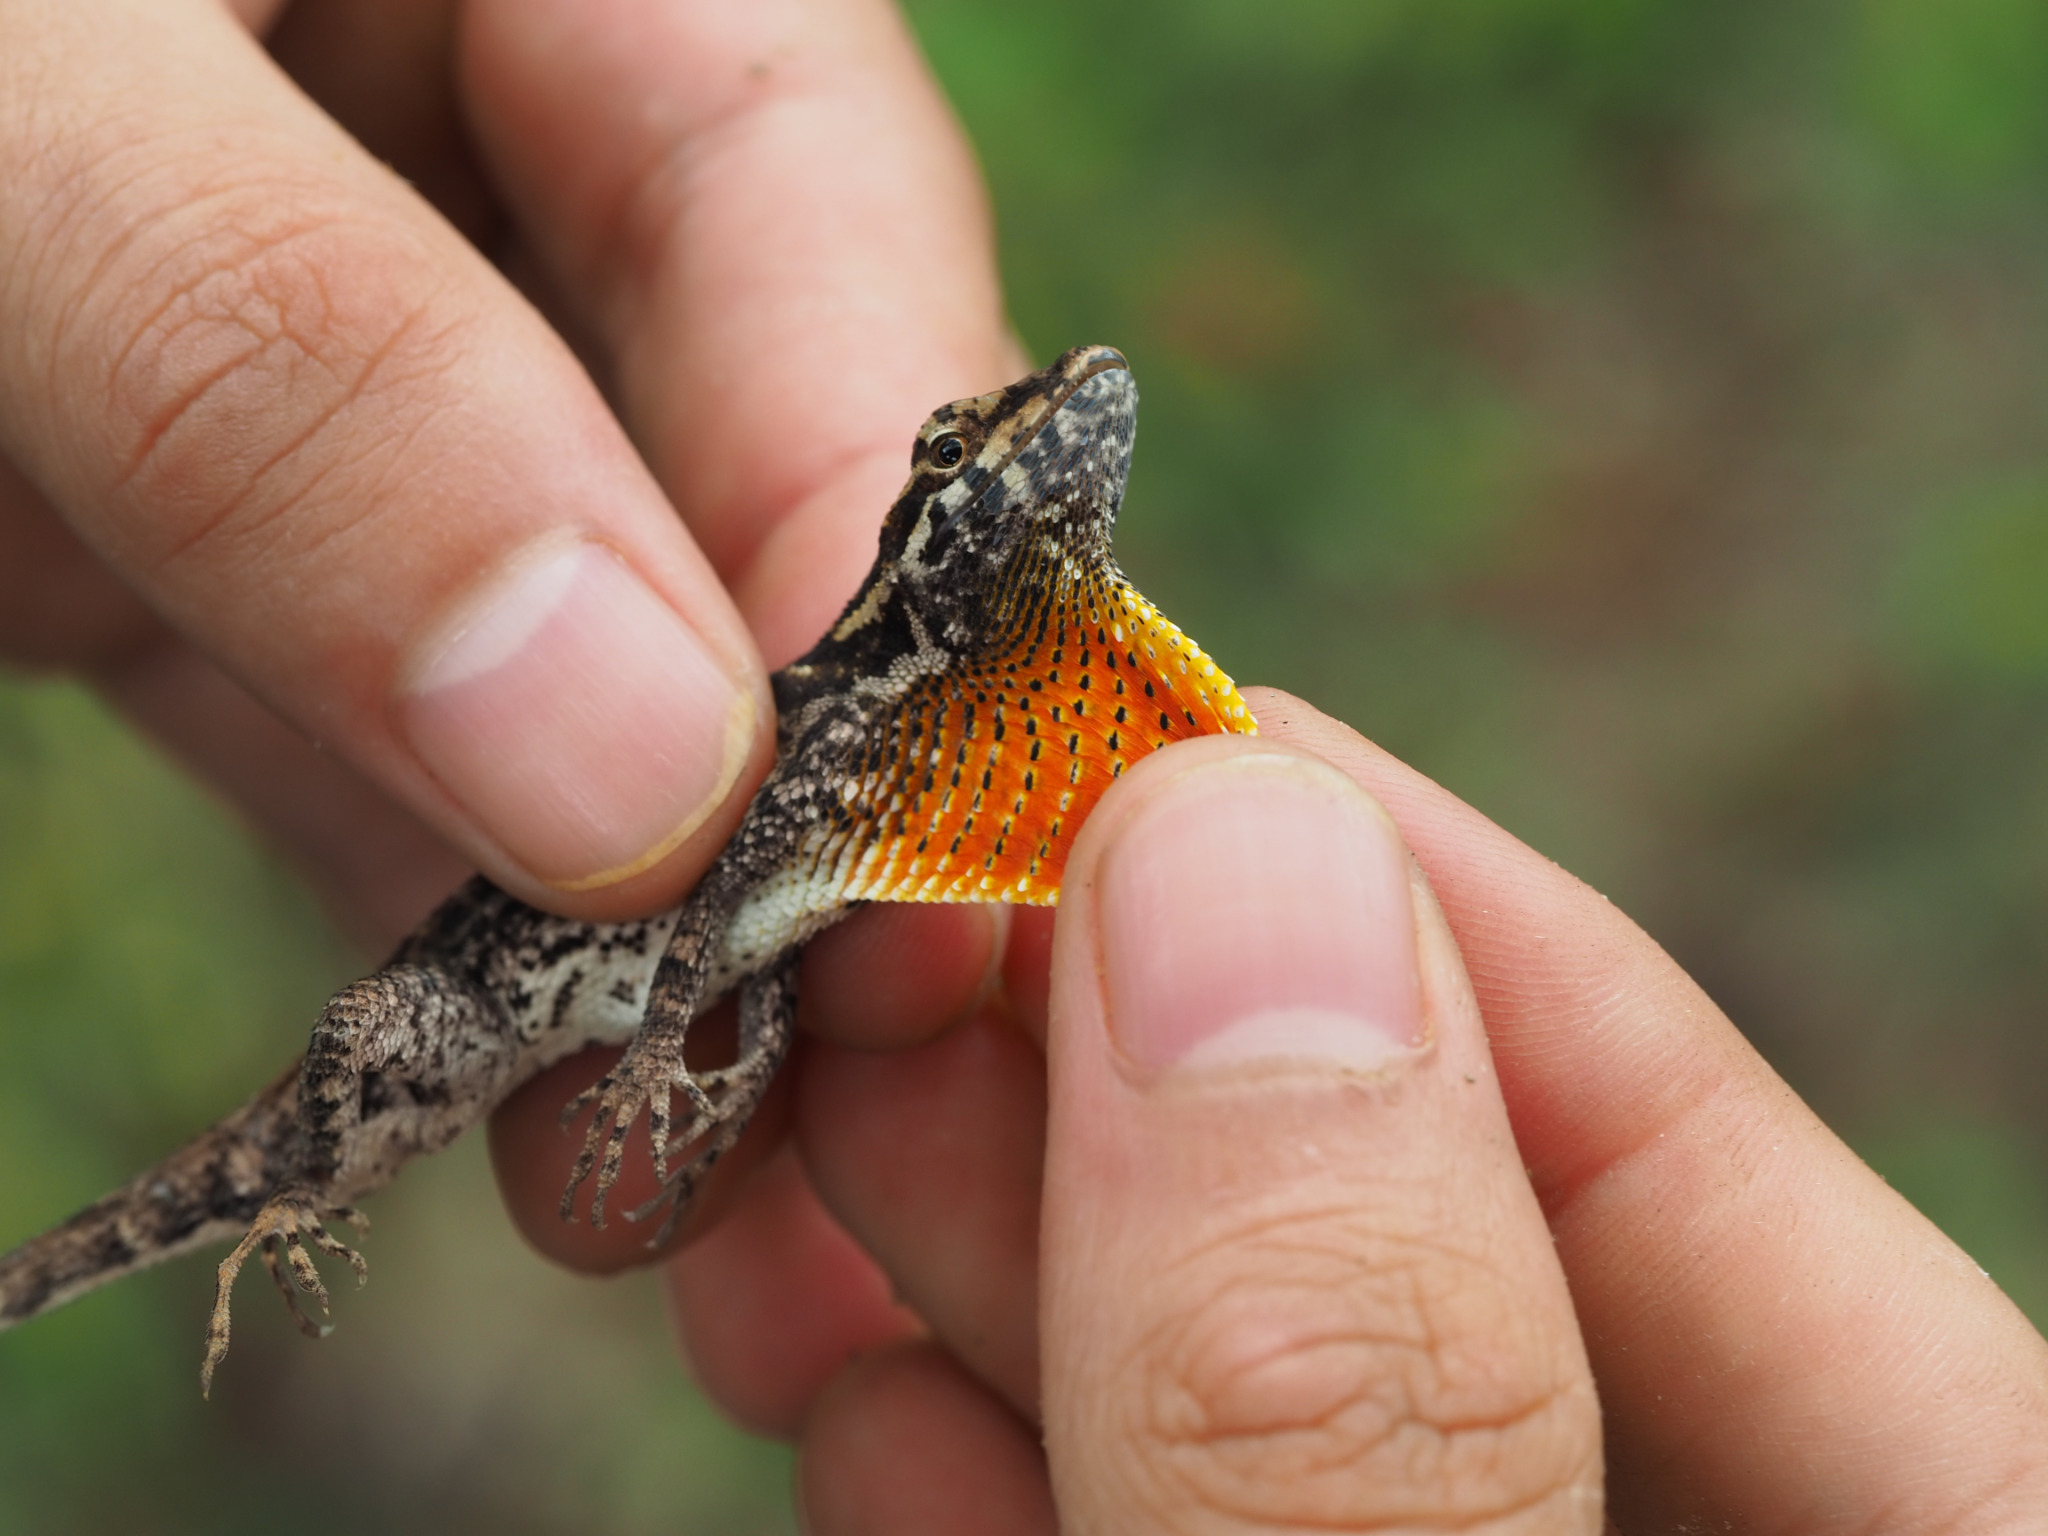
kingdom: Animalia
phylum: Chordata
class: Squamata
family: Dactyloidae
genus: Anolis
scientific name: Anolis tropidonotus
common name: Greater scaly anole
